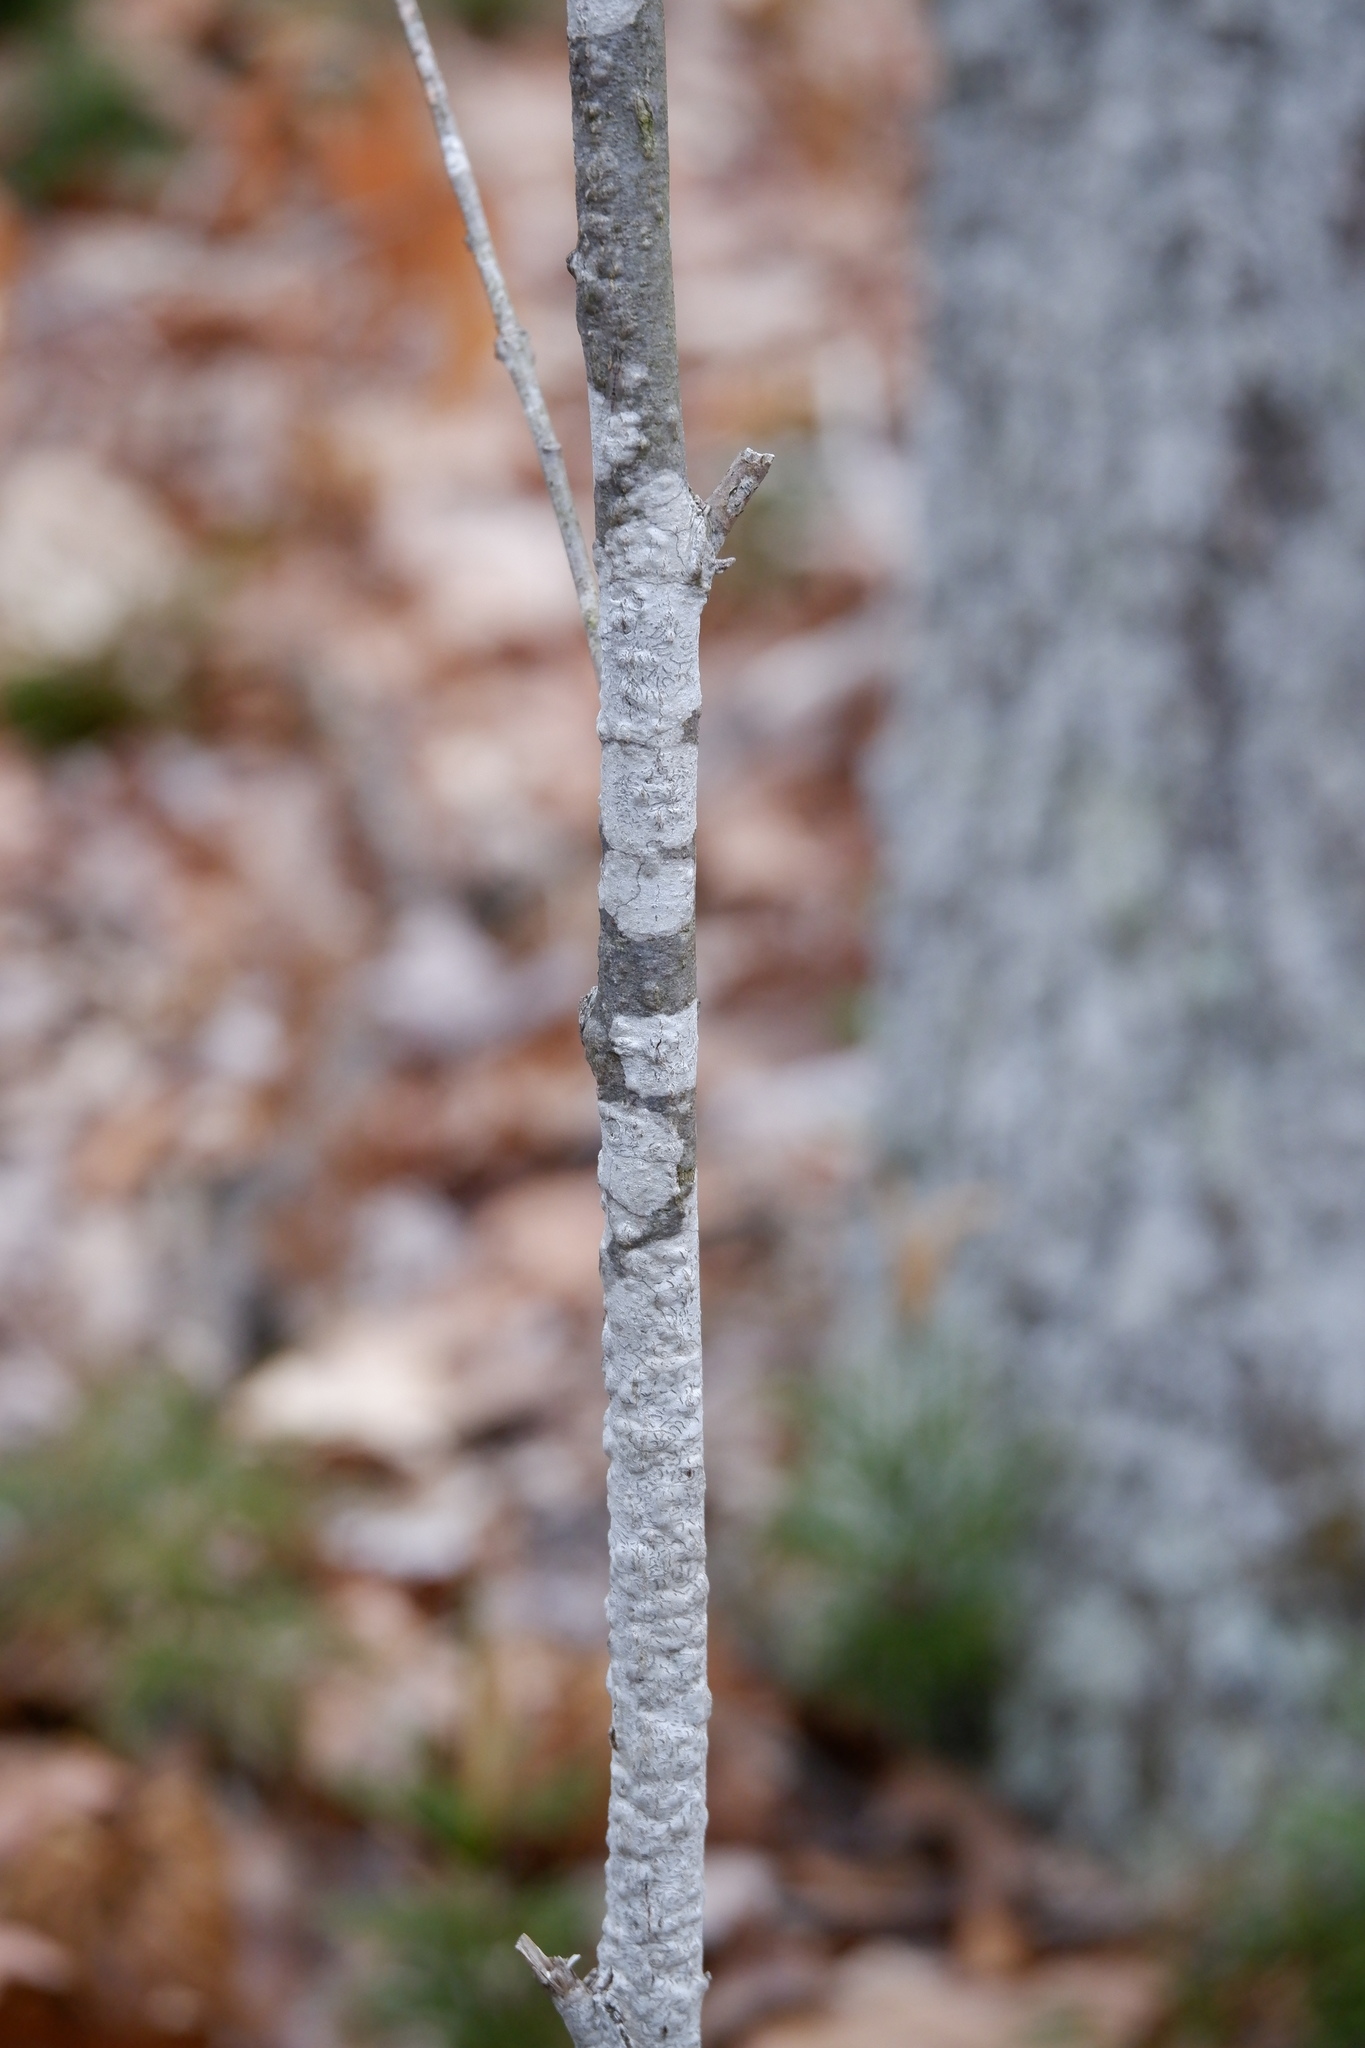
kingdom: Fungi
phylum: Ascomycota
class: Lecanoromycetes
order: Ostropales
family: Graphidaceae
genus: Graphis
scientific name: Graphis scripta
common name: Script lichen
